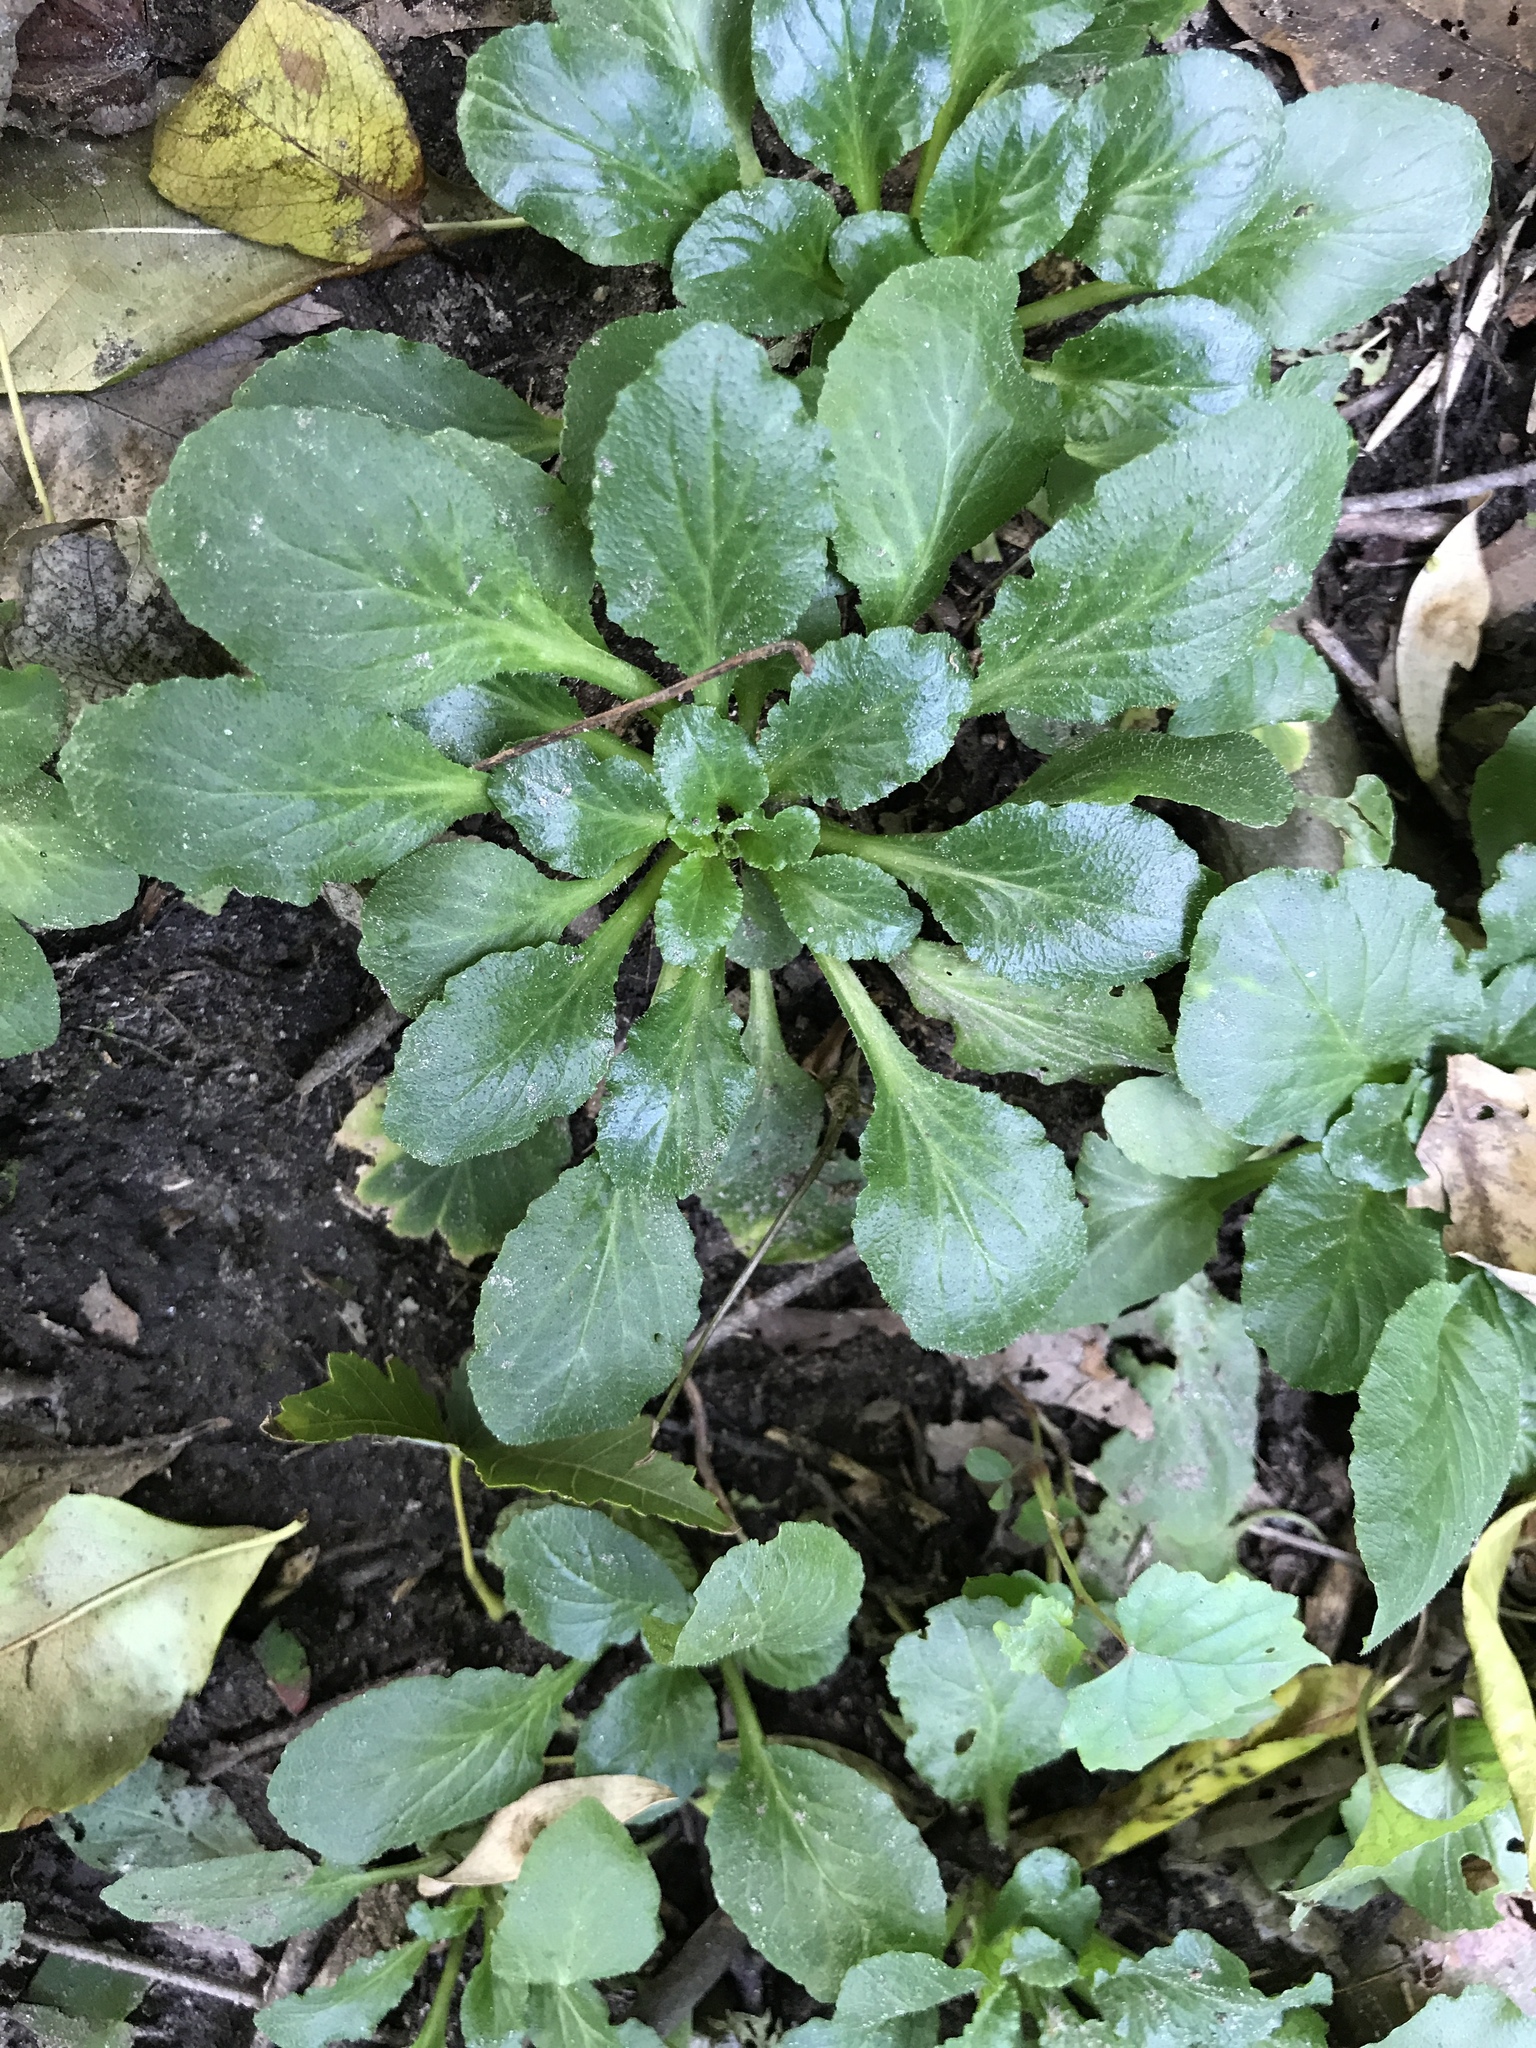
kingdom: Plantae
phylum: Tracheophyta
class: Magnoliopsida
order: Asterales
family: Campanulaceae
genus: Lobelia
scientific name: Lobelia inflata
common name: Indian tobacco
